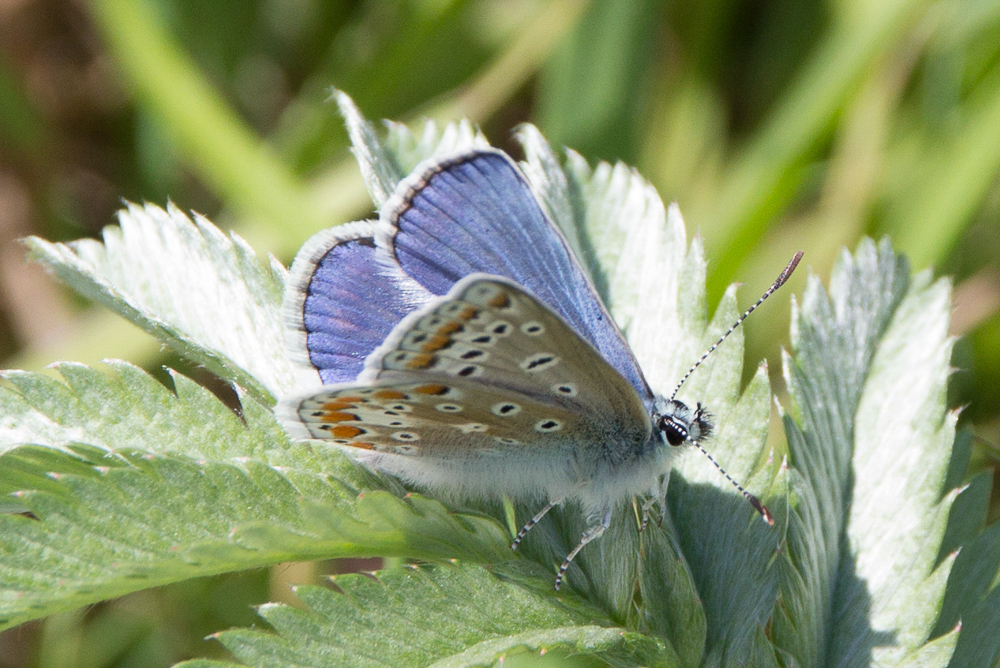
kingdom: Animalia
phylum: Arthropoda
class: Insecta
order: Lepidoptera
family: Lycaenidae
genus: Polyommatus
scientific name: Polyommatus icarus
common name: Common blue
